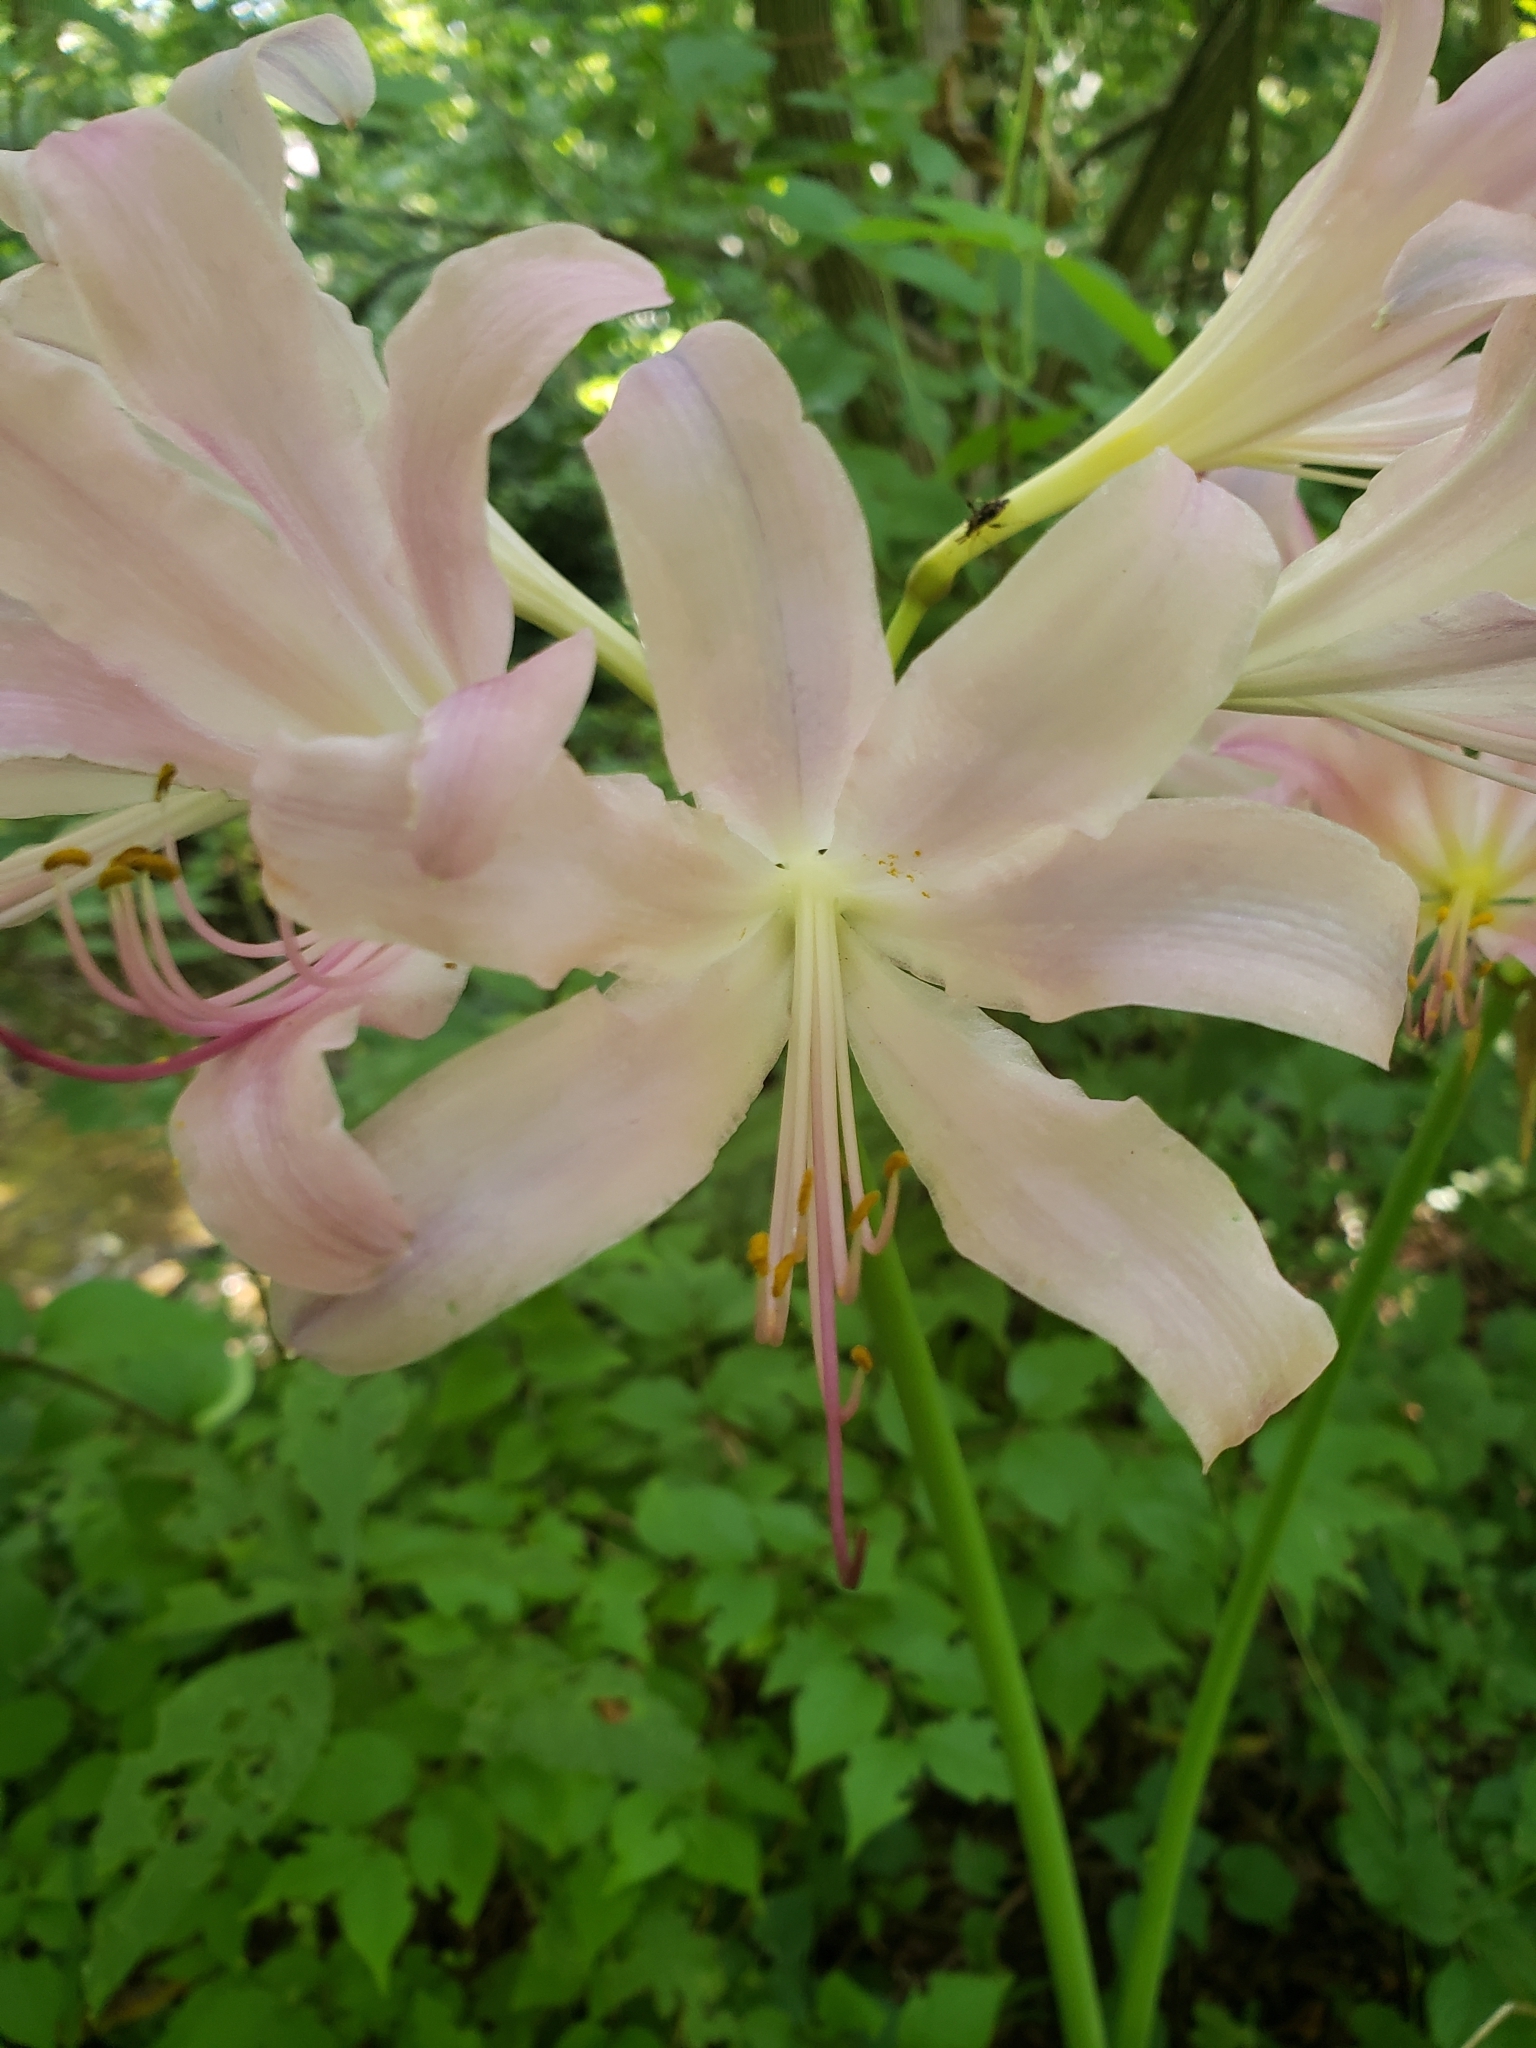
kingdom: Plantae
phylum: Tracheophyta
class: Liliopsida
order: Asparagales
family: Amaryllidaceae
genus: Lycoris
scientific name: Lycoris squamigera
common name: Magic-lily
